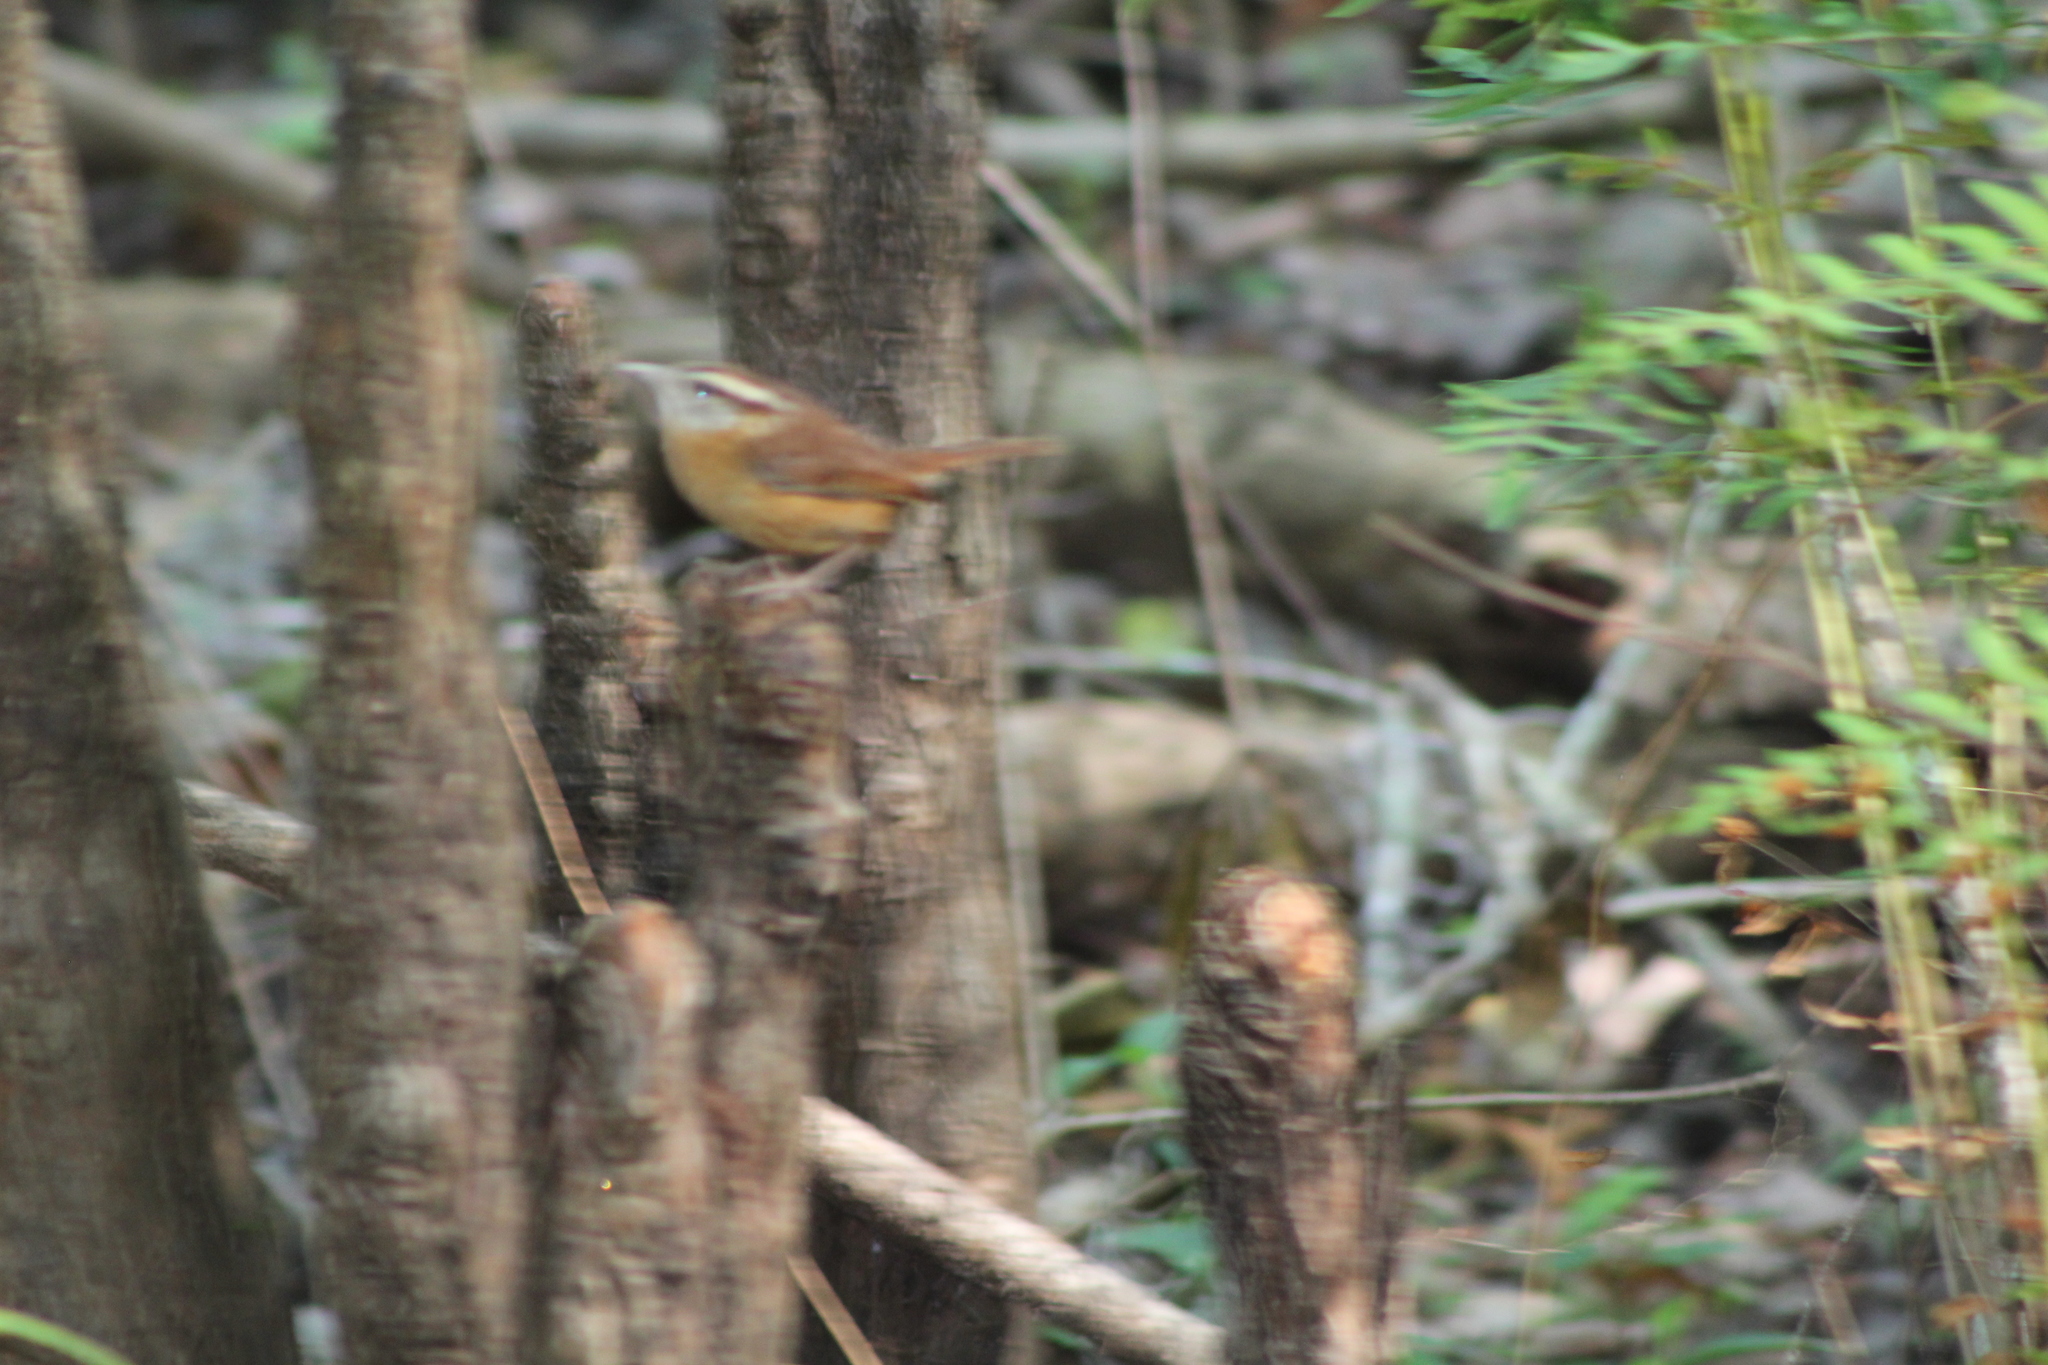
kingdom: Animalia
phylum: Chordata
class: Aves
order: Passeriformes
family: Troglodytidae
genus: Thryothorus
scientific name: Thryothorus ludovicianus
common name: Carolina wren
